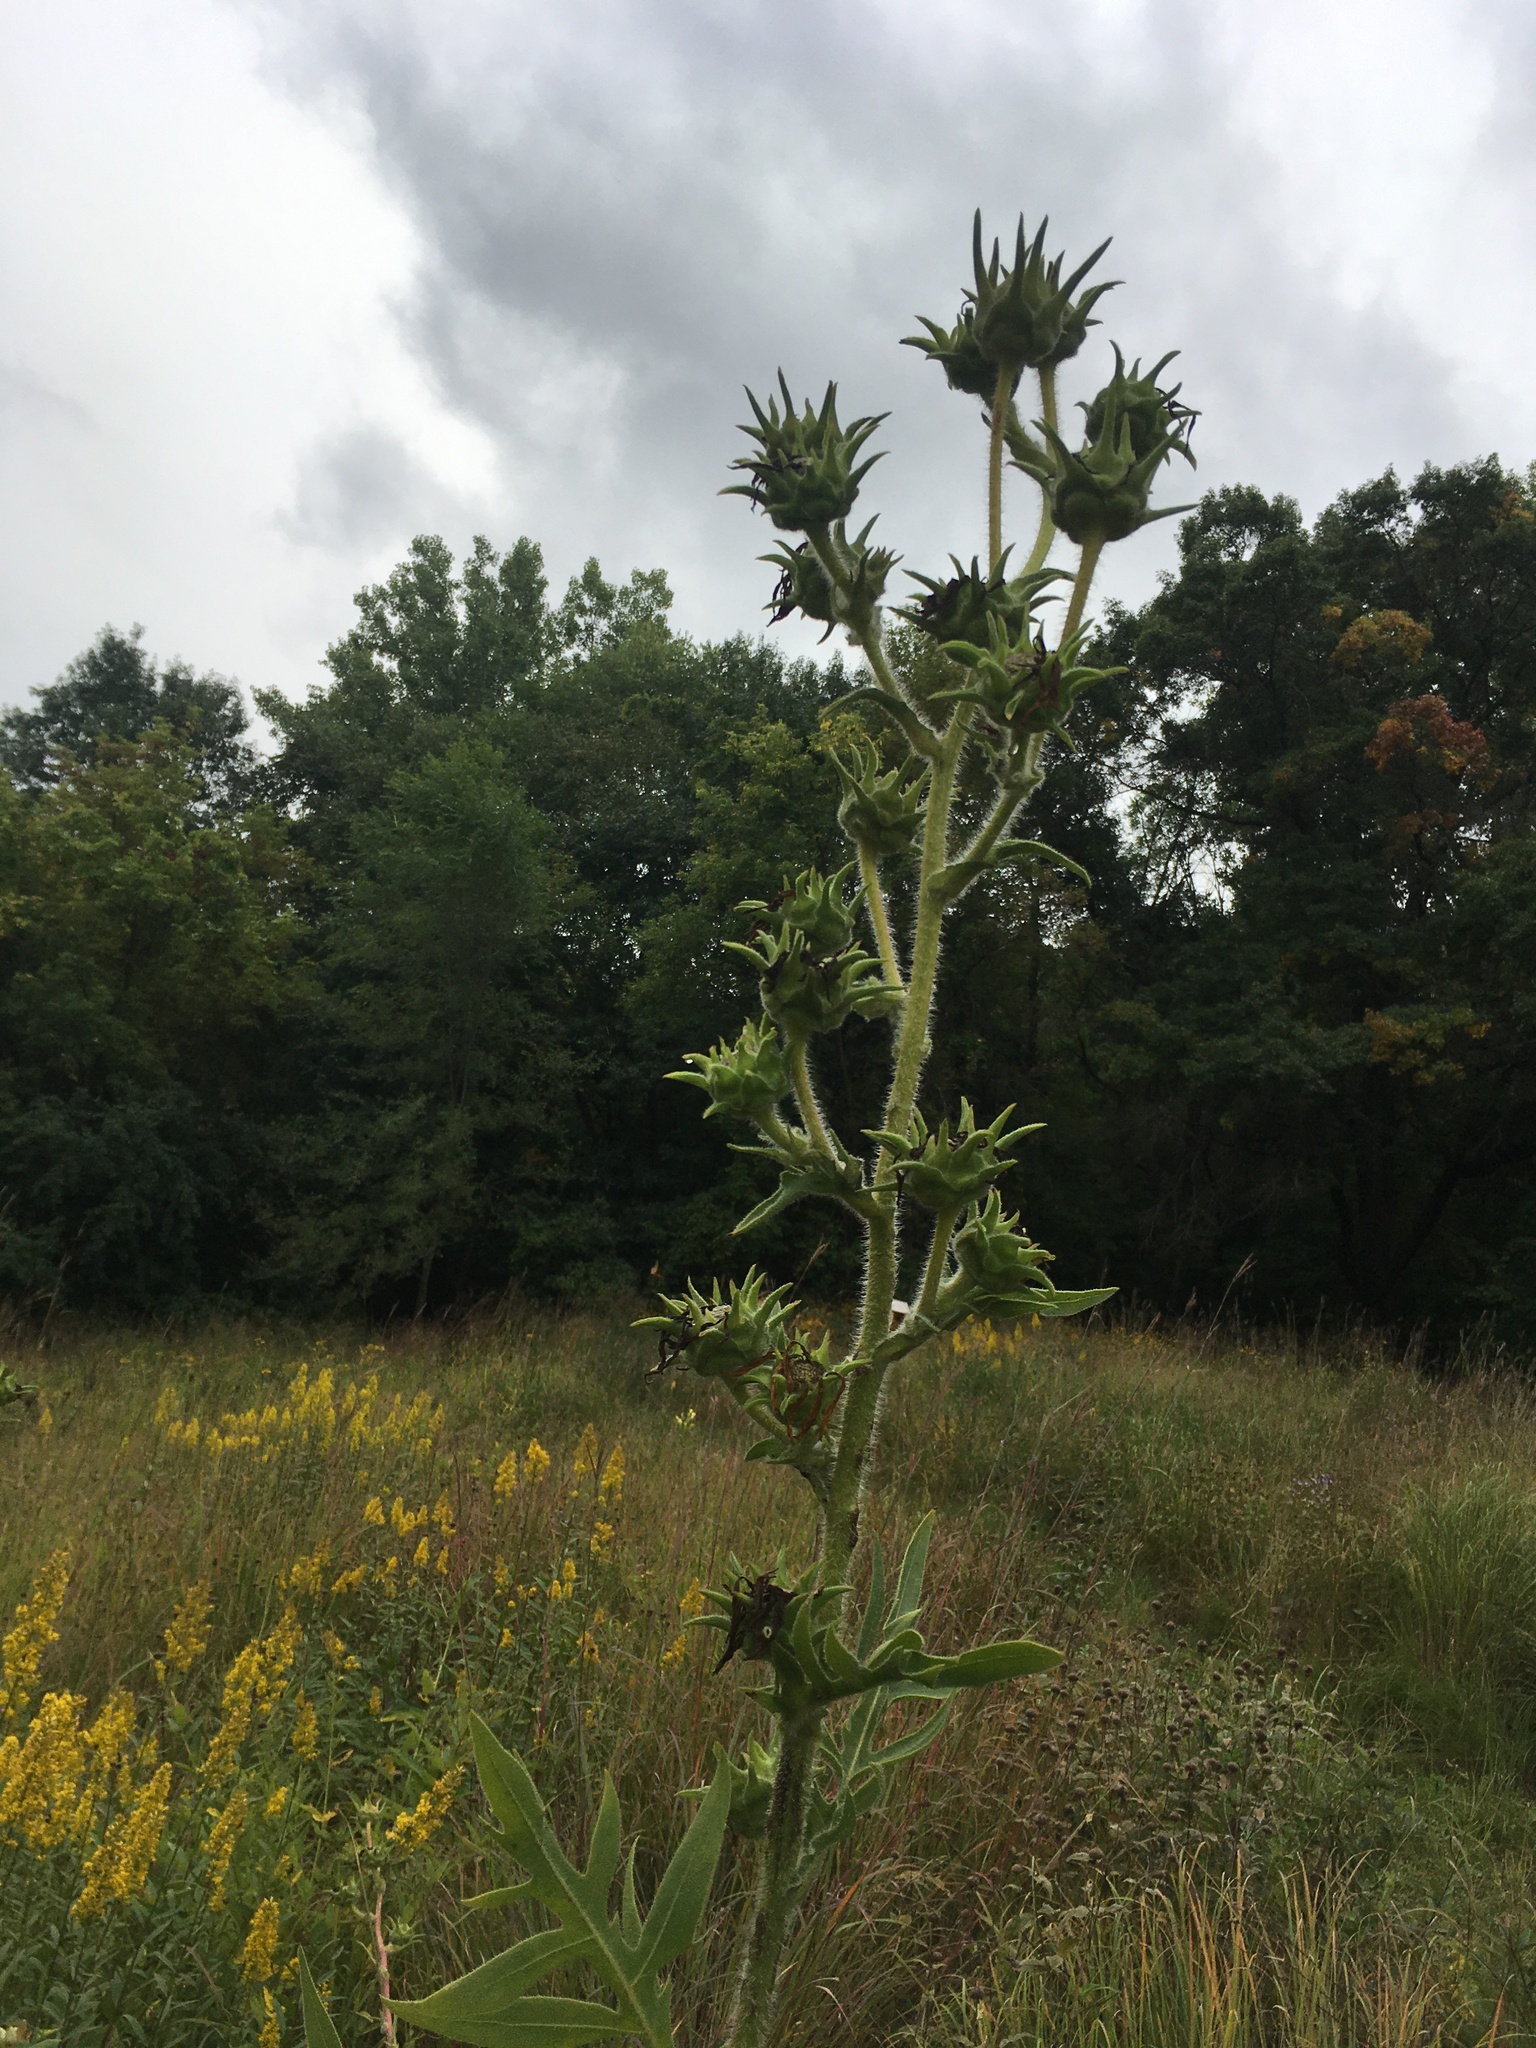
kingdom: Plantae
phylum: Tracheophyta
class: Magnoliopsida
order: Asterales
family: Asteraceae
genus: Silphium
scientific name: Silphium laciniatum
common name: Polarplant
